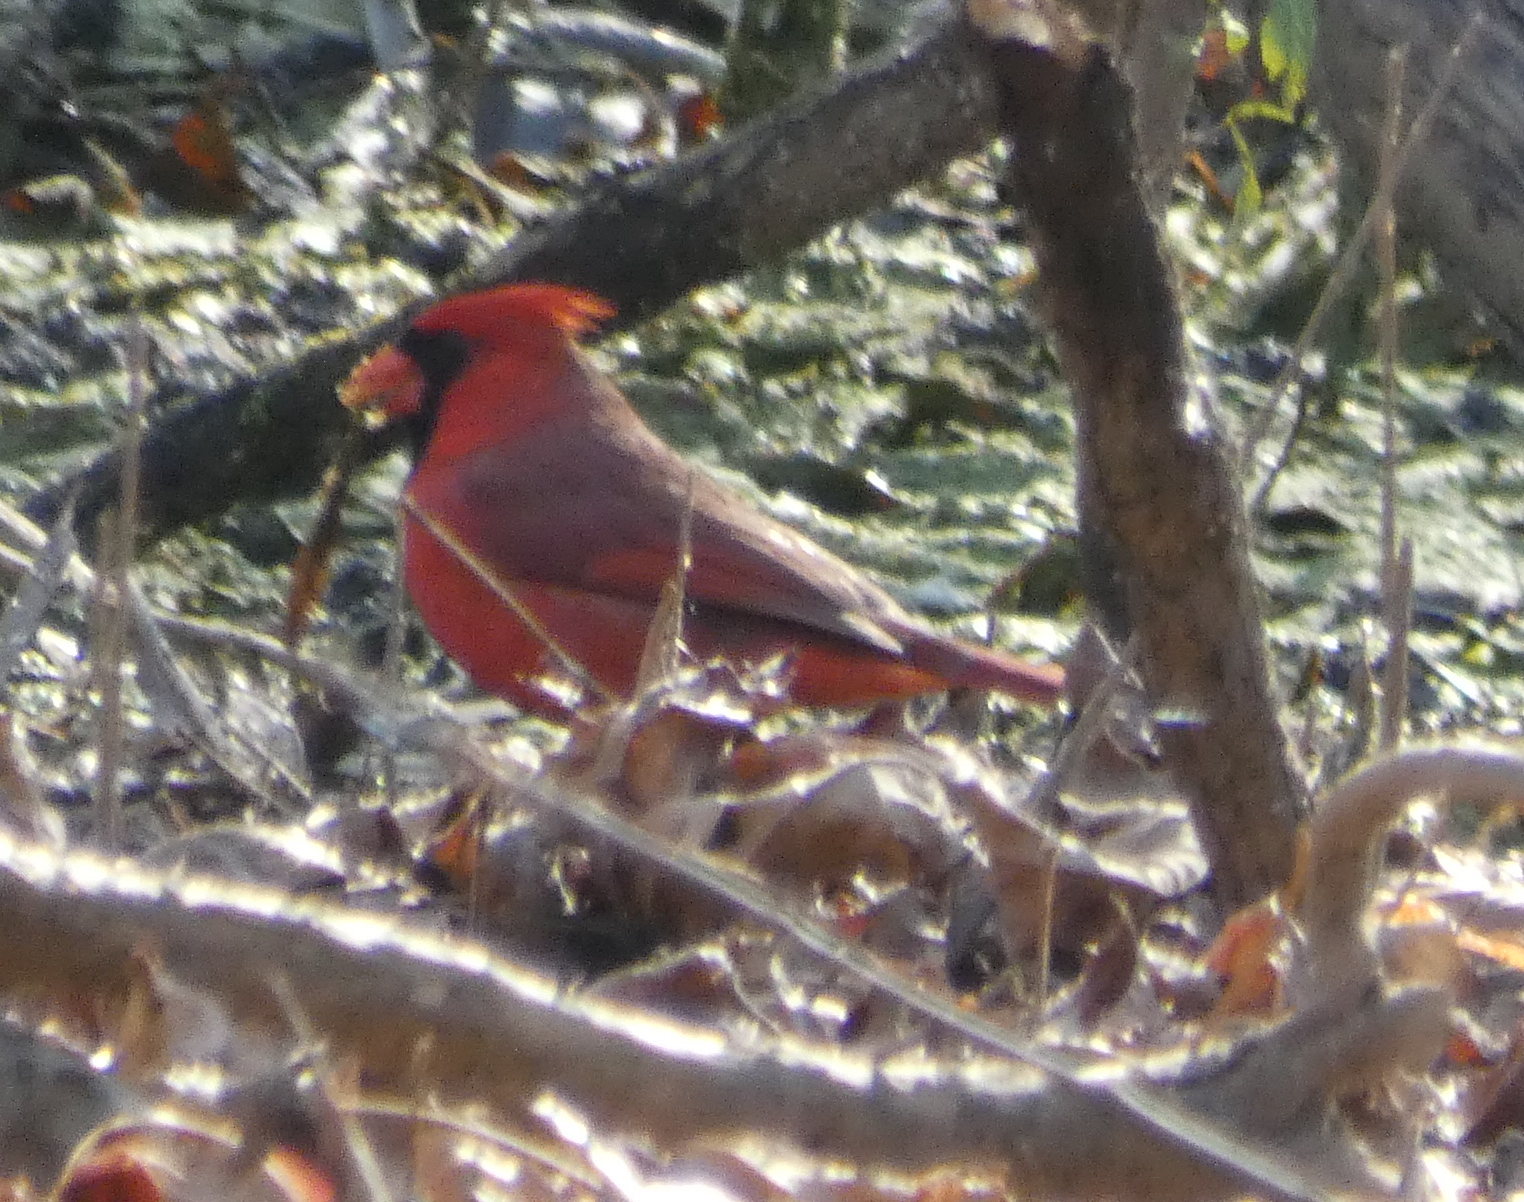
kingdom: Animalia
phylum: Chordata
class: Aves
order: Passeriformes
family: Cardinalidae
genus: Cardinalis
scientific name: Cardinalis cardinalis
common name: Northern cardinal
